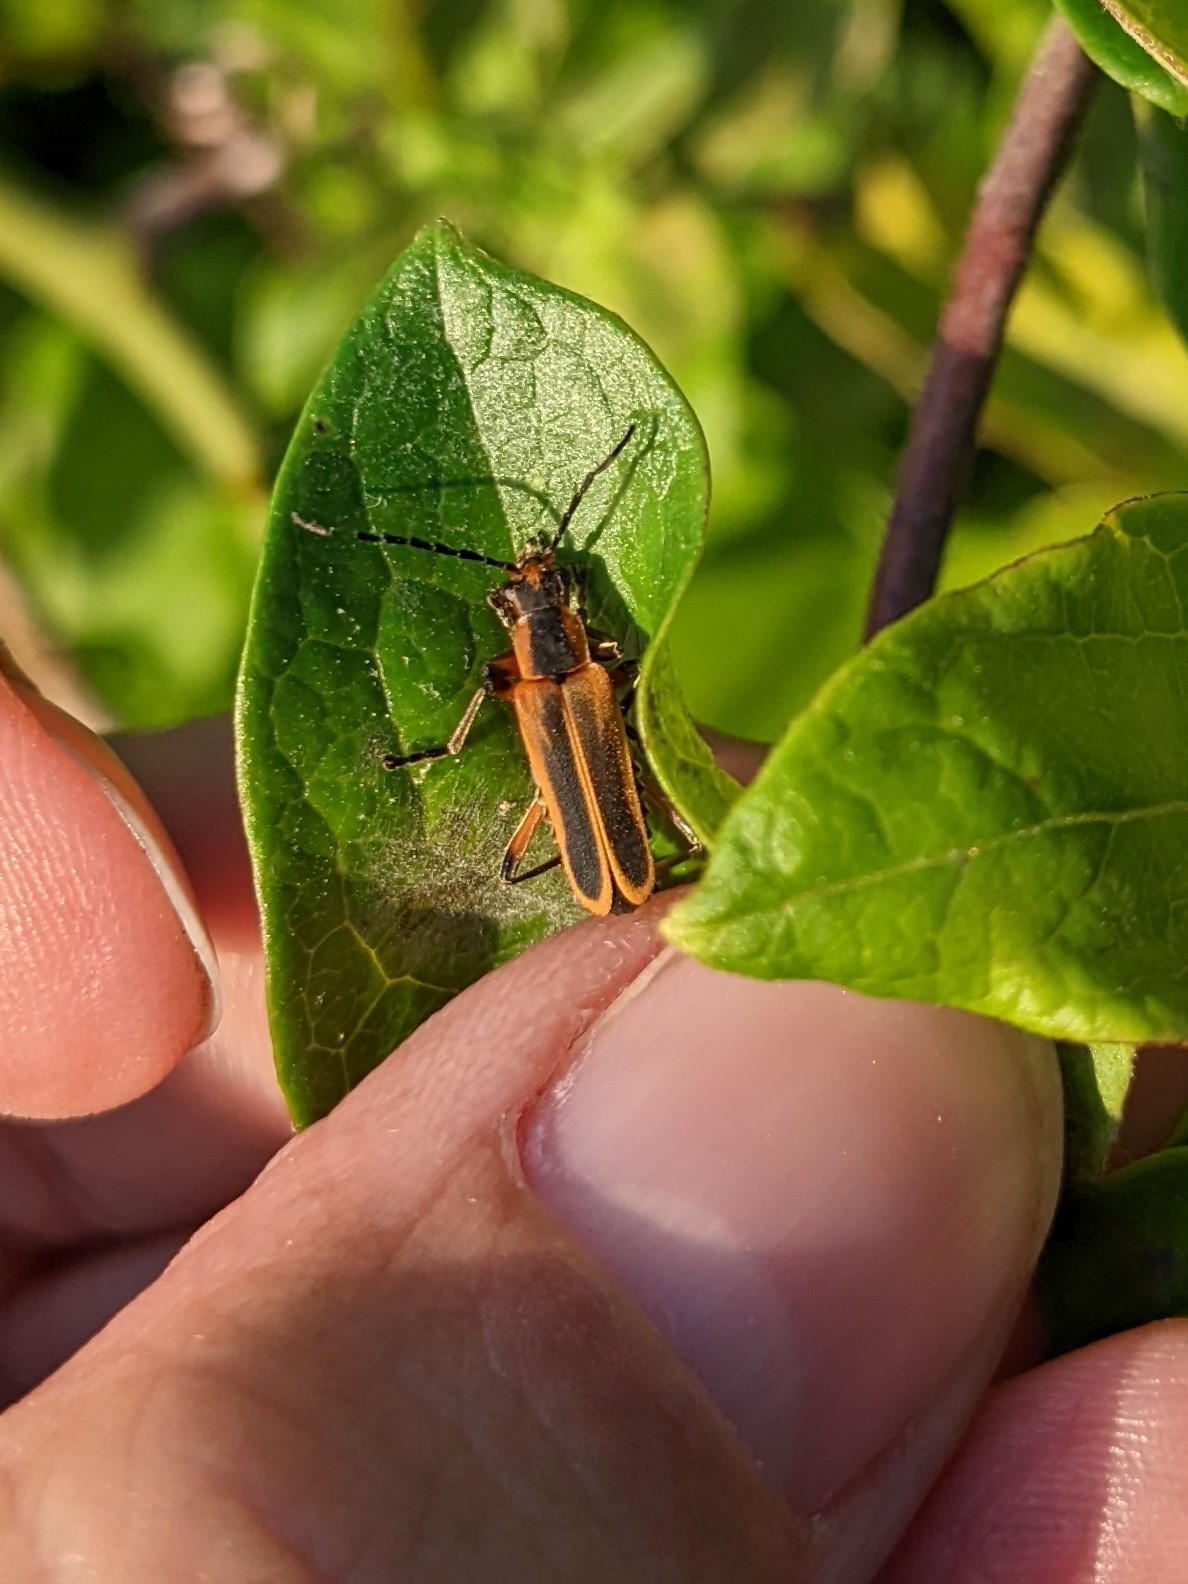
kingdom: Animalia
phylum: Arthropoda
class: Insecta
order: Coleoptera
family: Cantharidae
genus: Chauliognathus
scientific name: Chauliognathus marginatus
